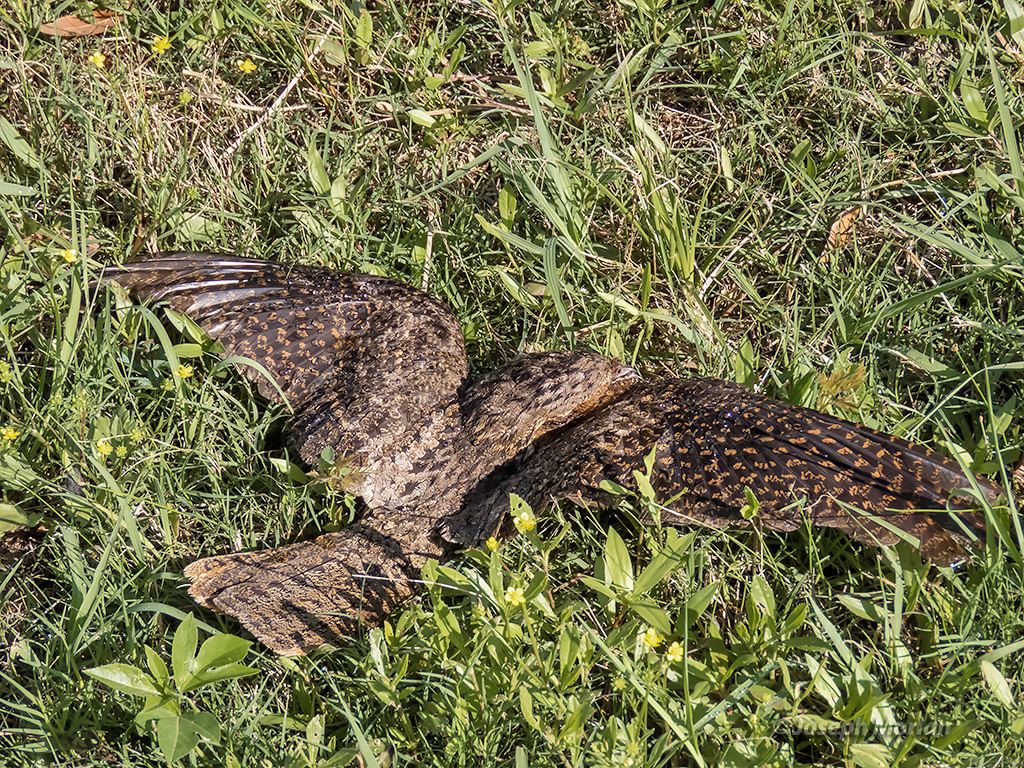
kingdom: Animalia
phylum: Chordata
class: Aves
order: Caprimulgiformes
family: Caprimulgidae
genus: Antrostomus
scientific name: Antrostomus carolinensis
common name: Chuck-will's-widow
